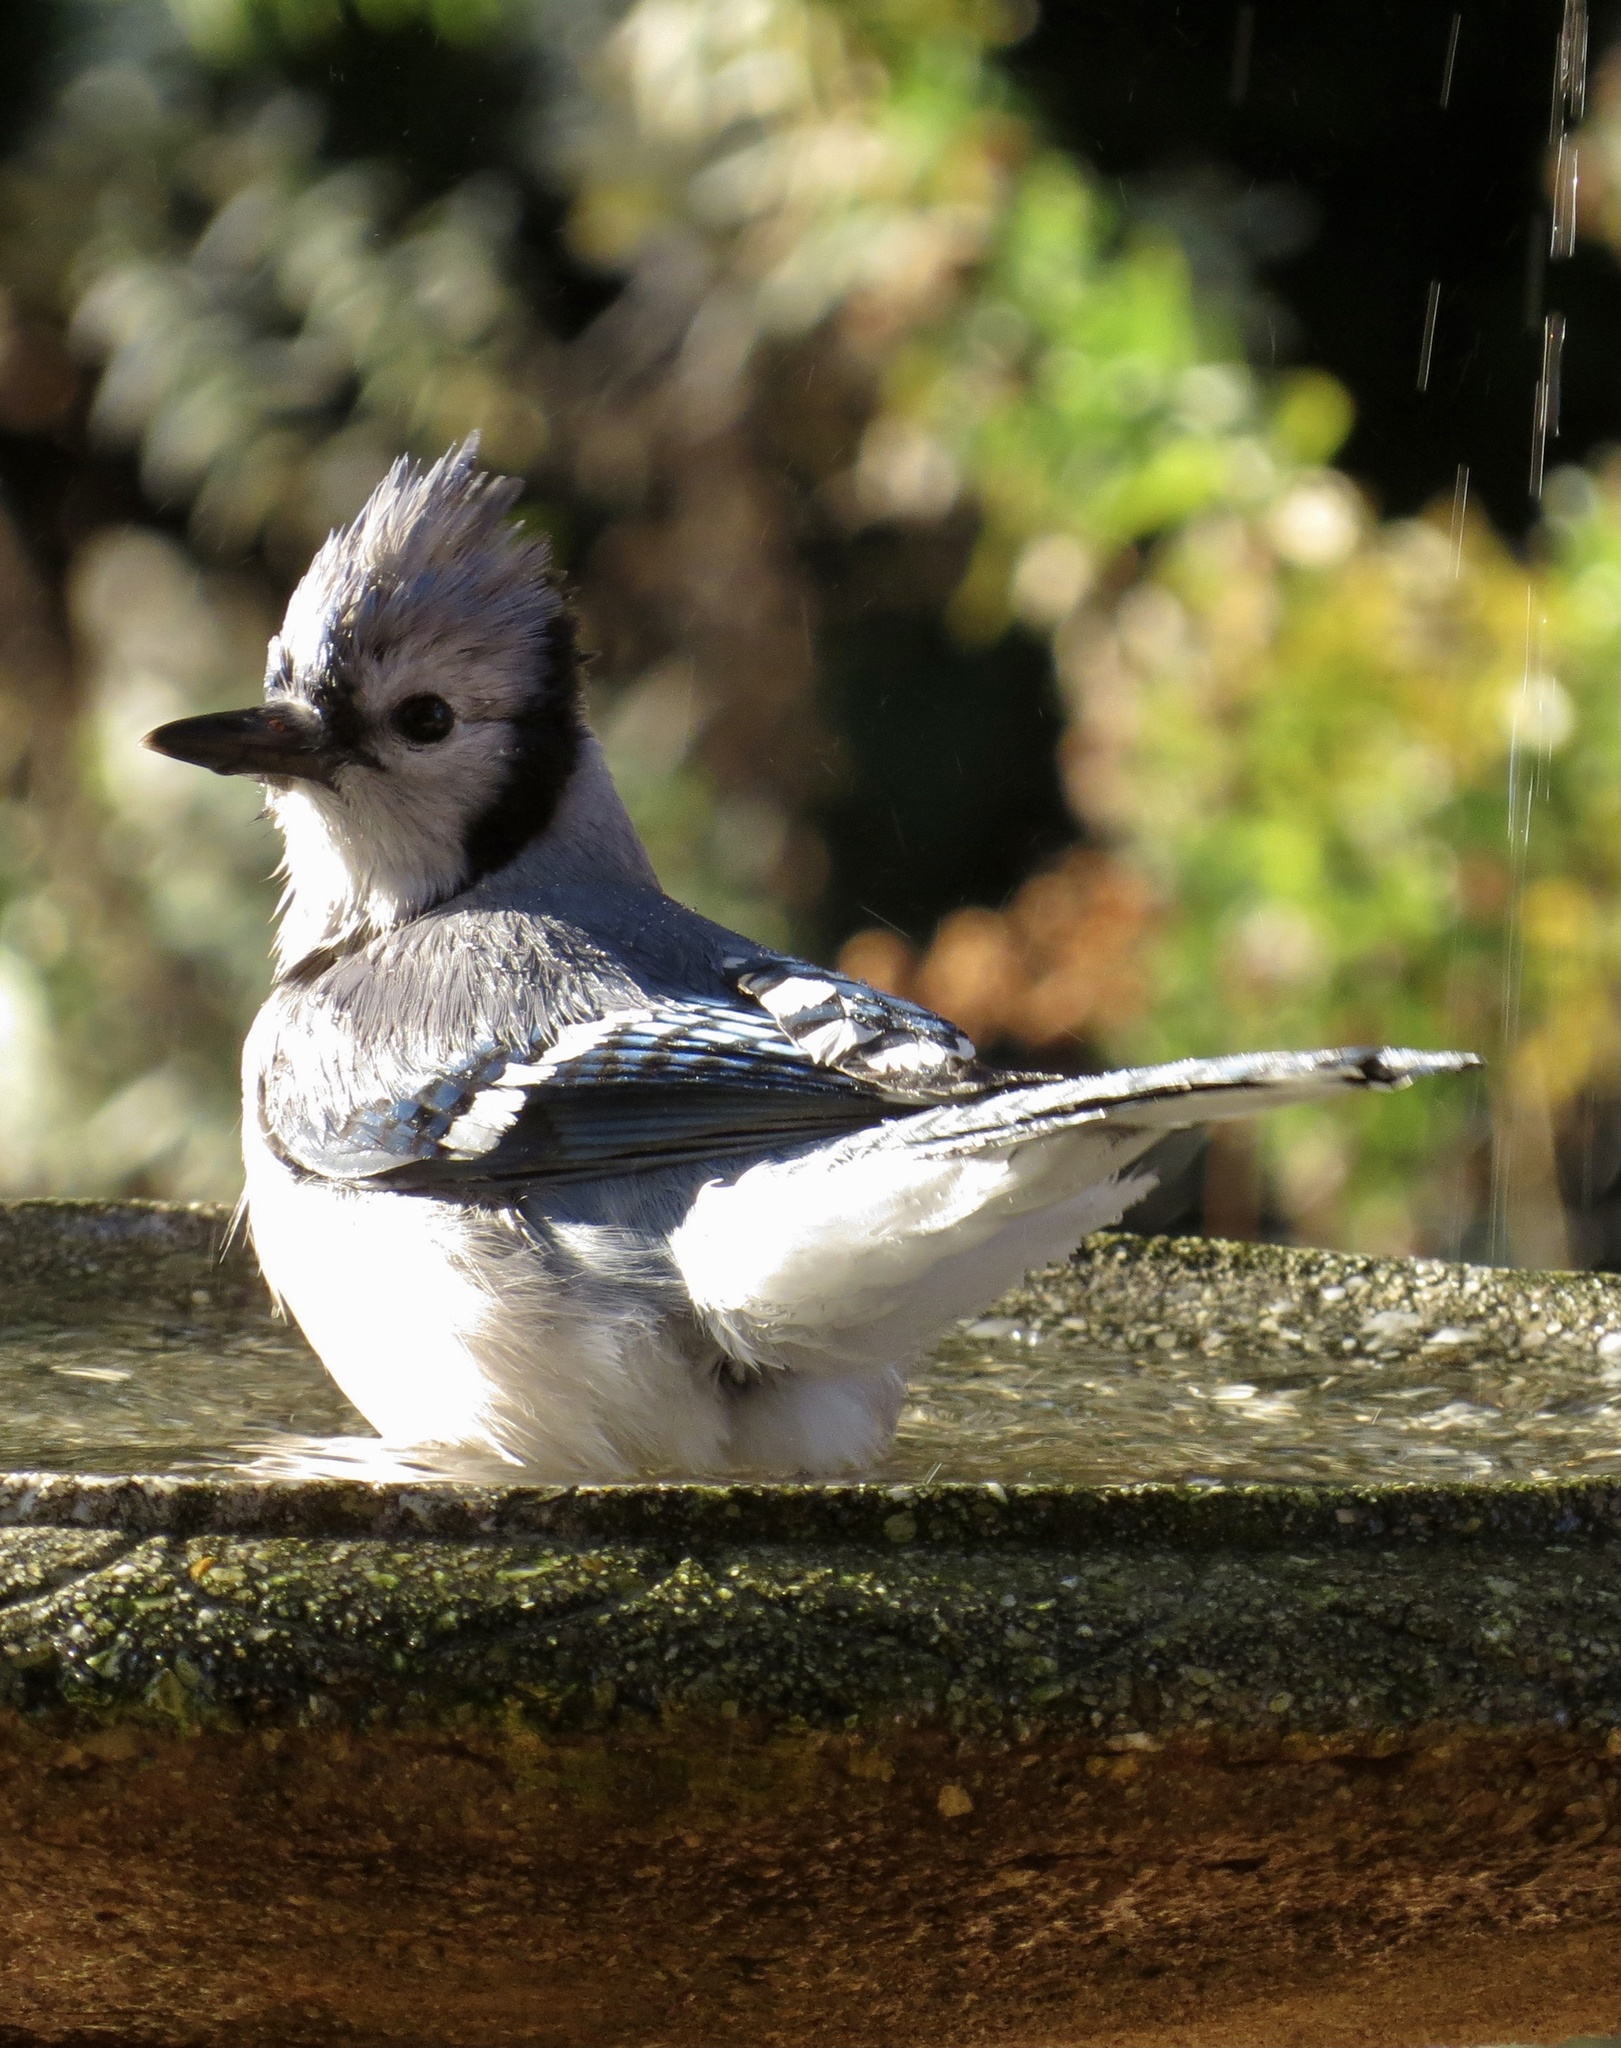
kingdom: Animalia
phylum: Chordata
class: Aves
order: Passeriformes
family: Corvidae
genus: Cyanocitta
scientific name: Cyanocitta cristata
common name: Blue jay
